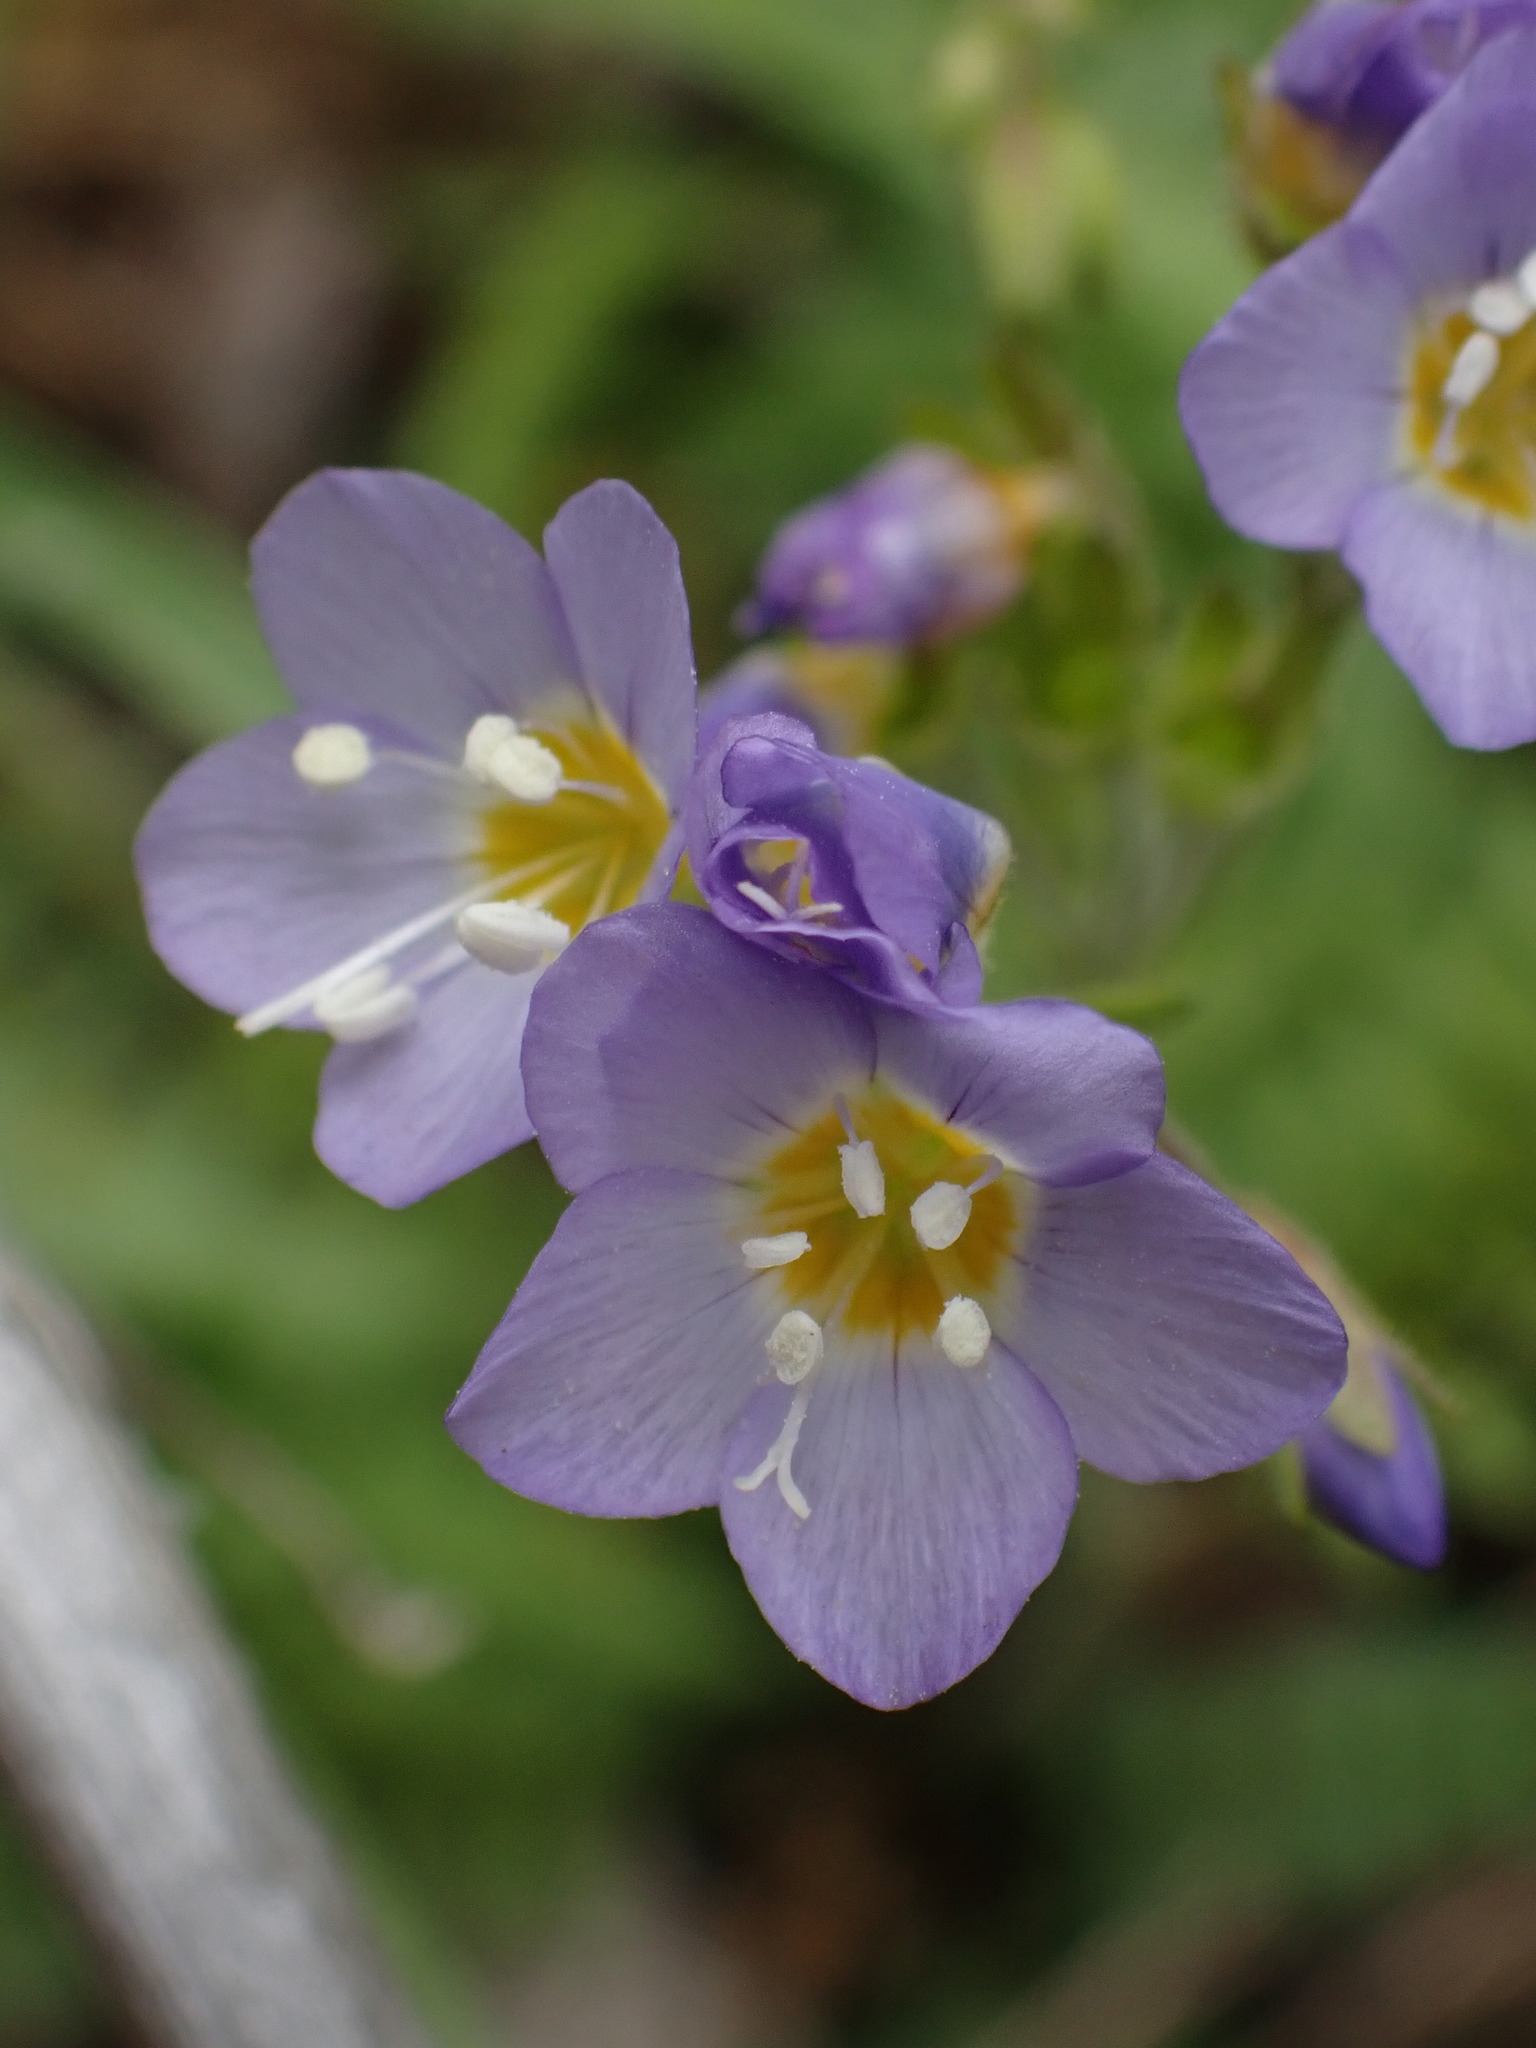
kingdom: Plantae
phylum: Tracheophyta
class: Magnoliopsida
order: Ericales
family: Polemoniaceae
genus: Polemonium
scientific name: Polemonium pulcherrimum
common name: Short jacob's-ladder
